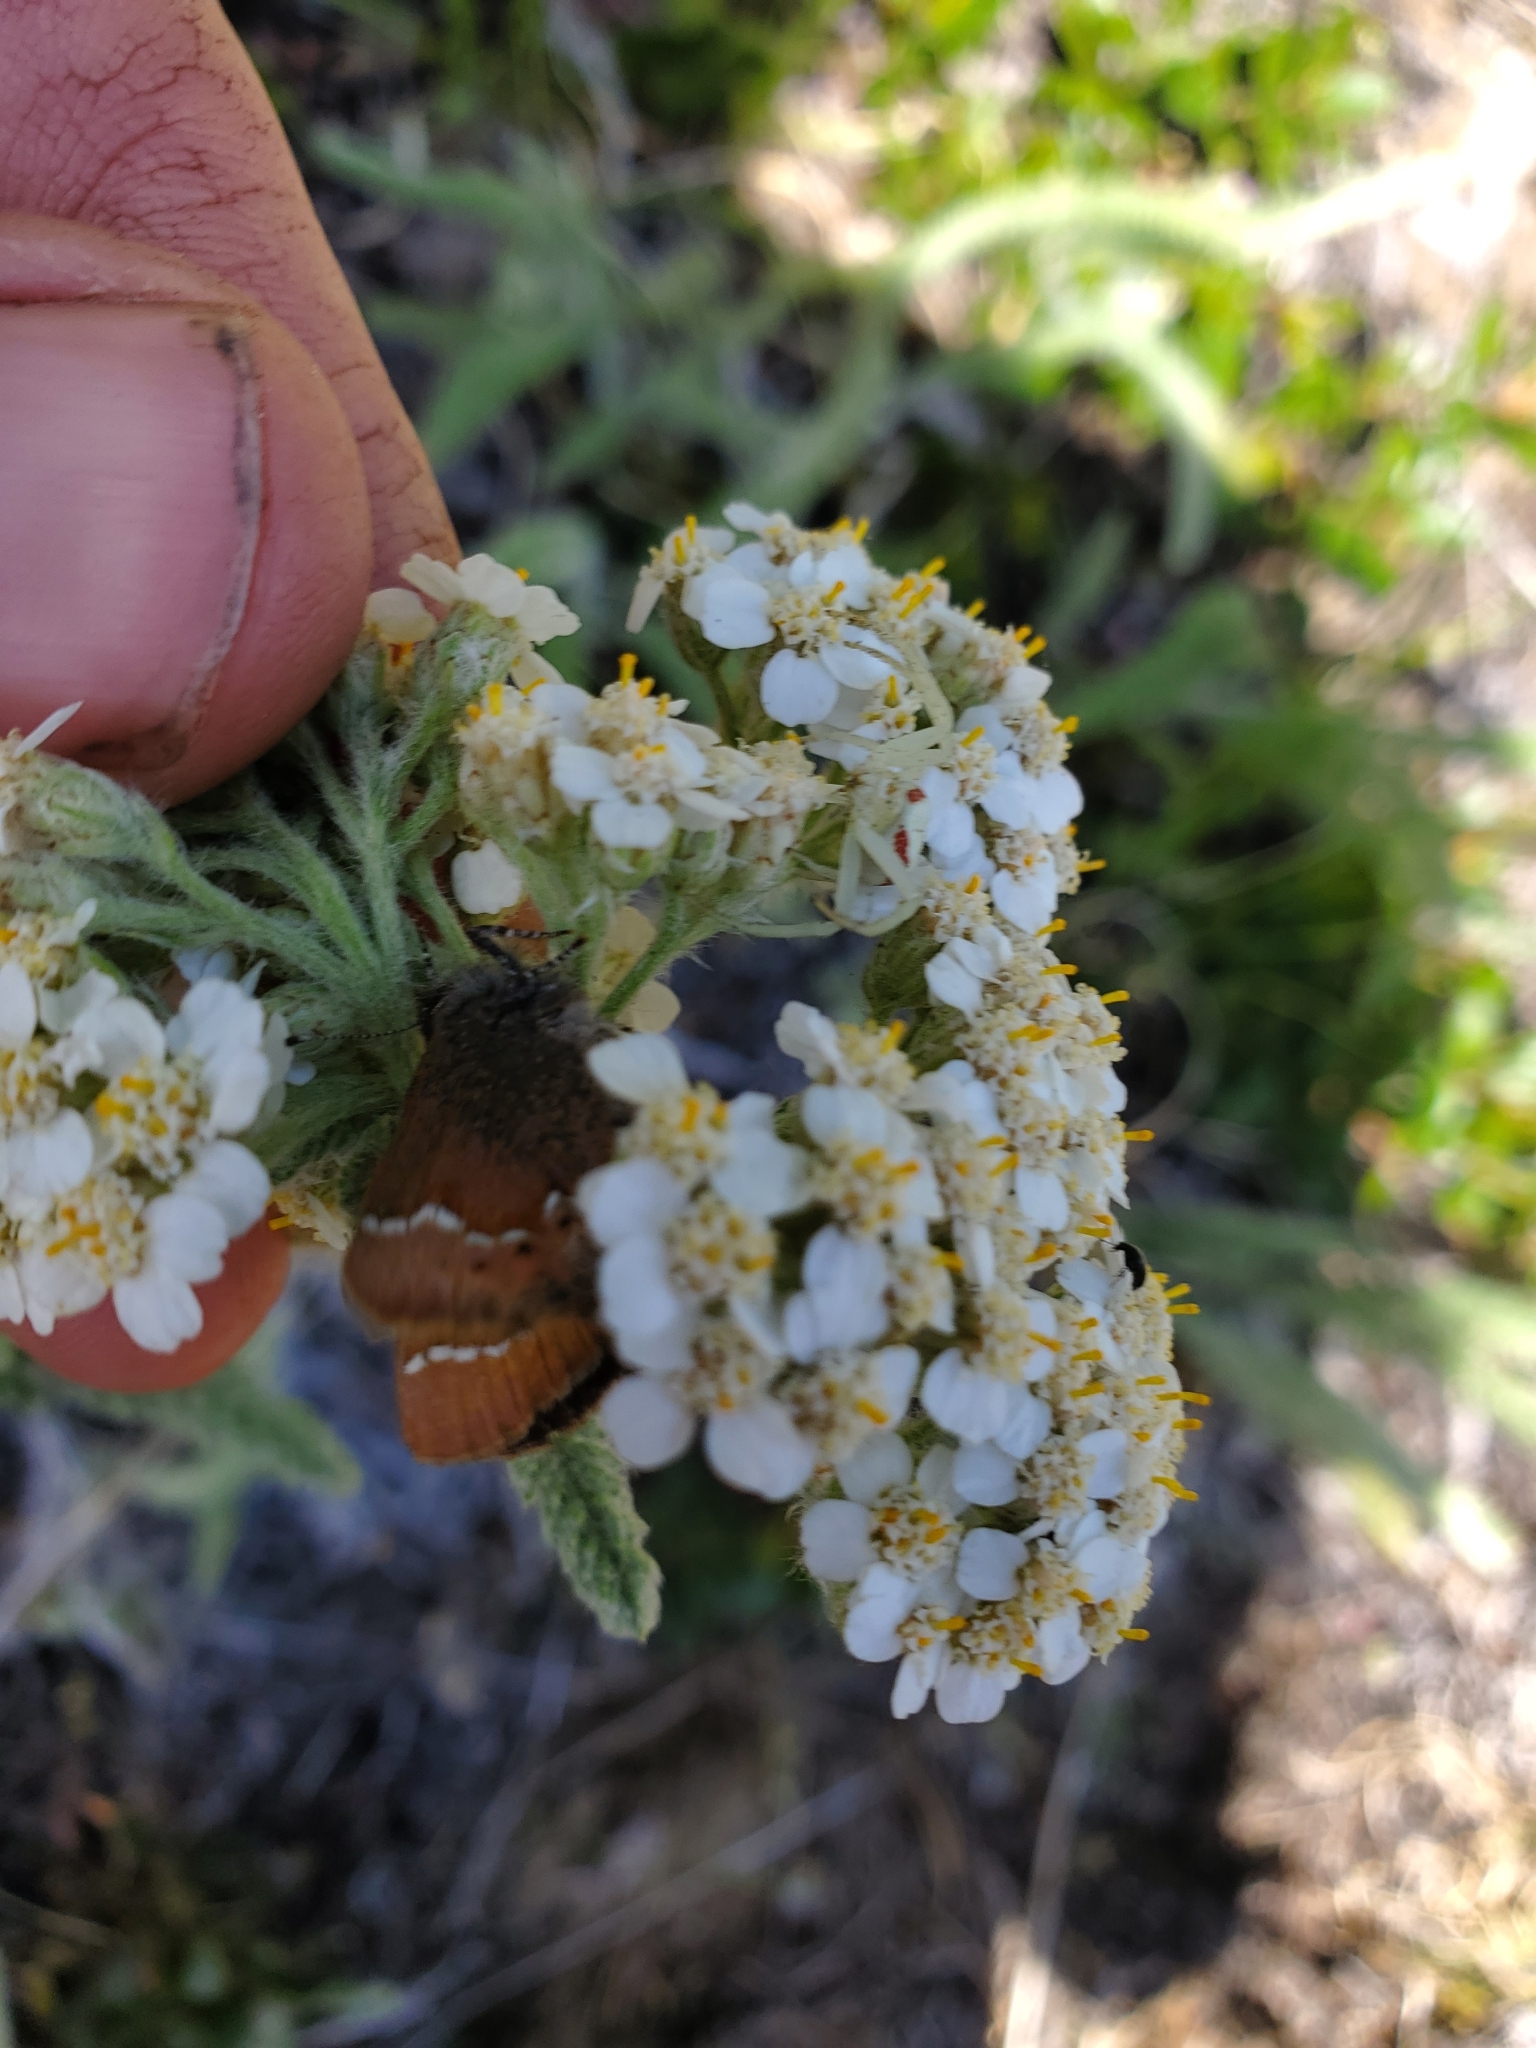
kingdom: Animalia
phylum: Arthropoda
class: Insecta
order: Lepidoptera
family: Lycaenidae
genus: Mitoura
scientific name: Mitoura gryneus
